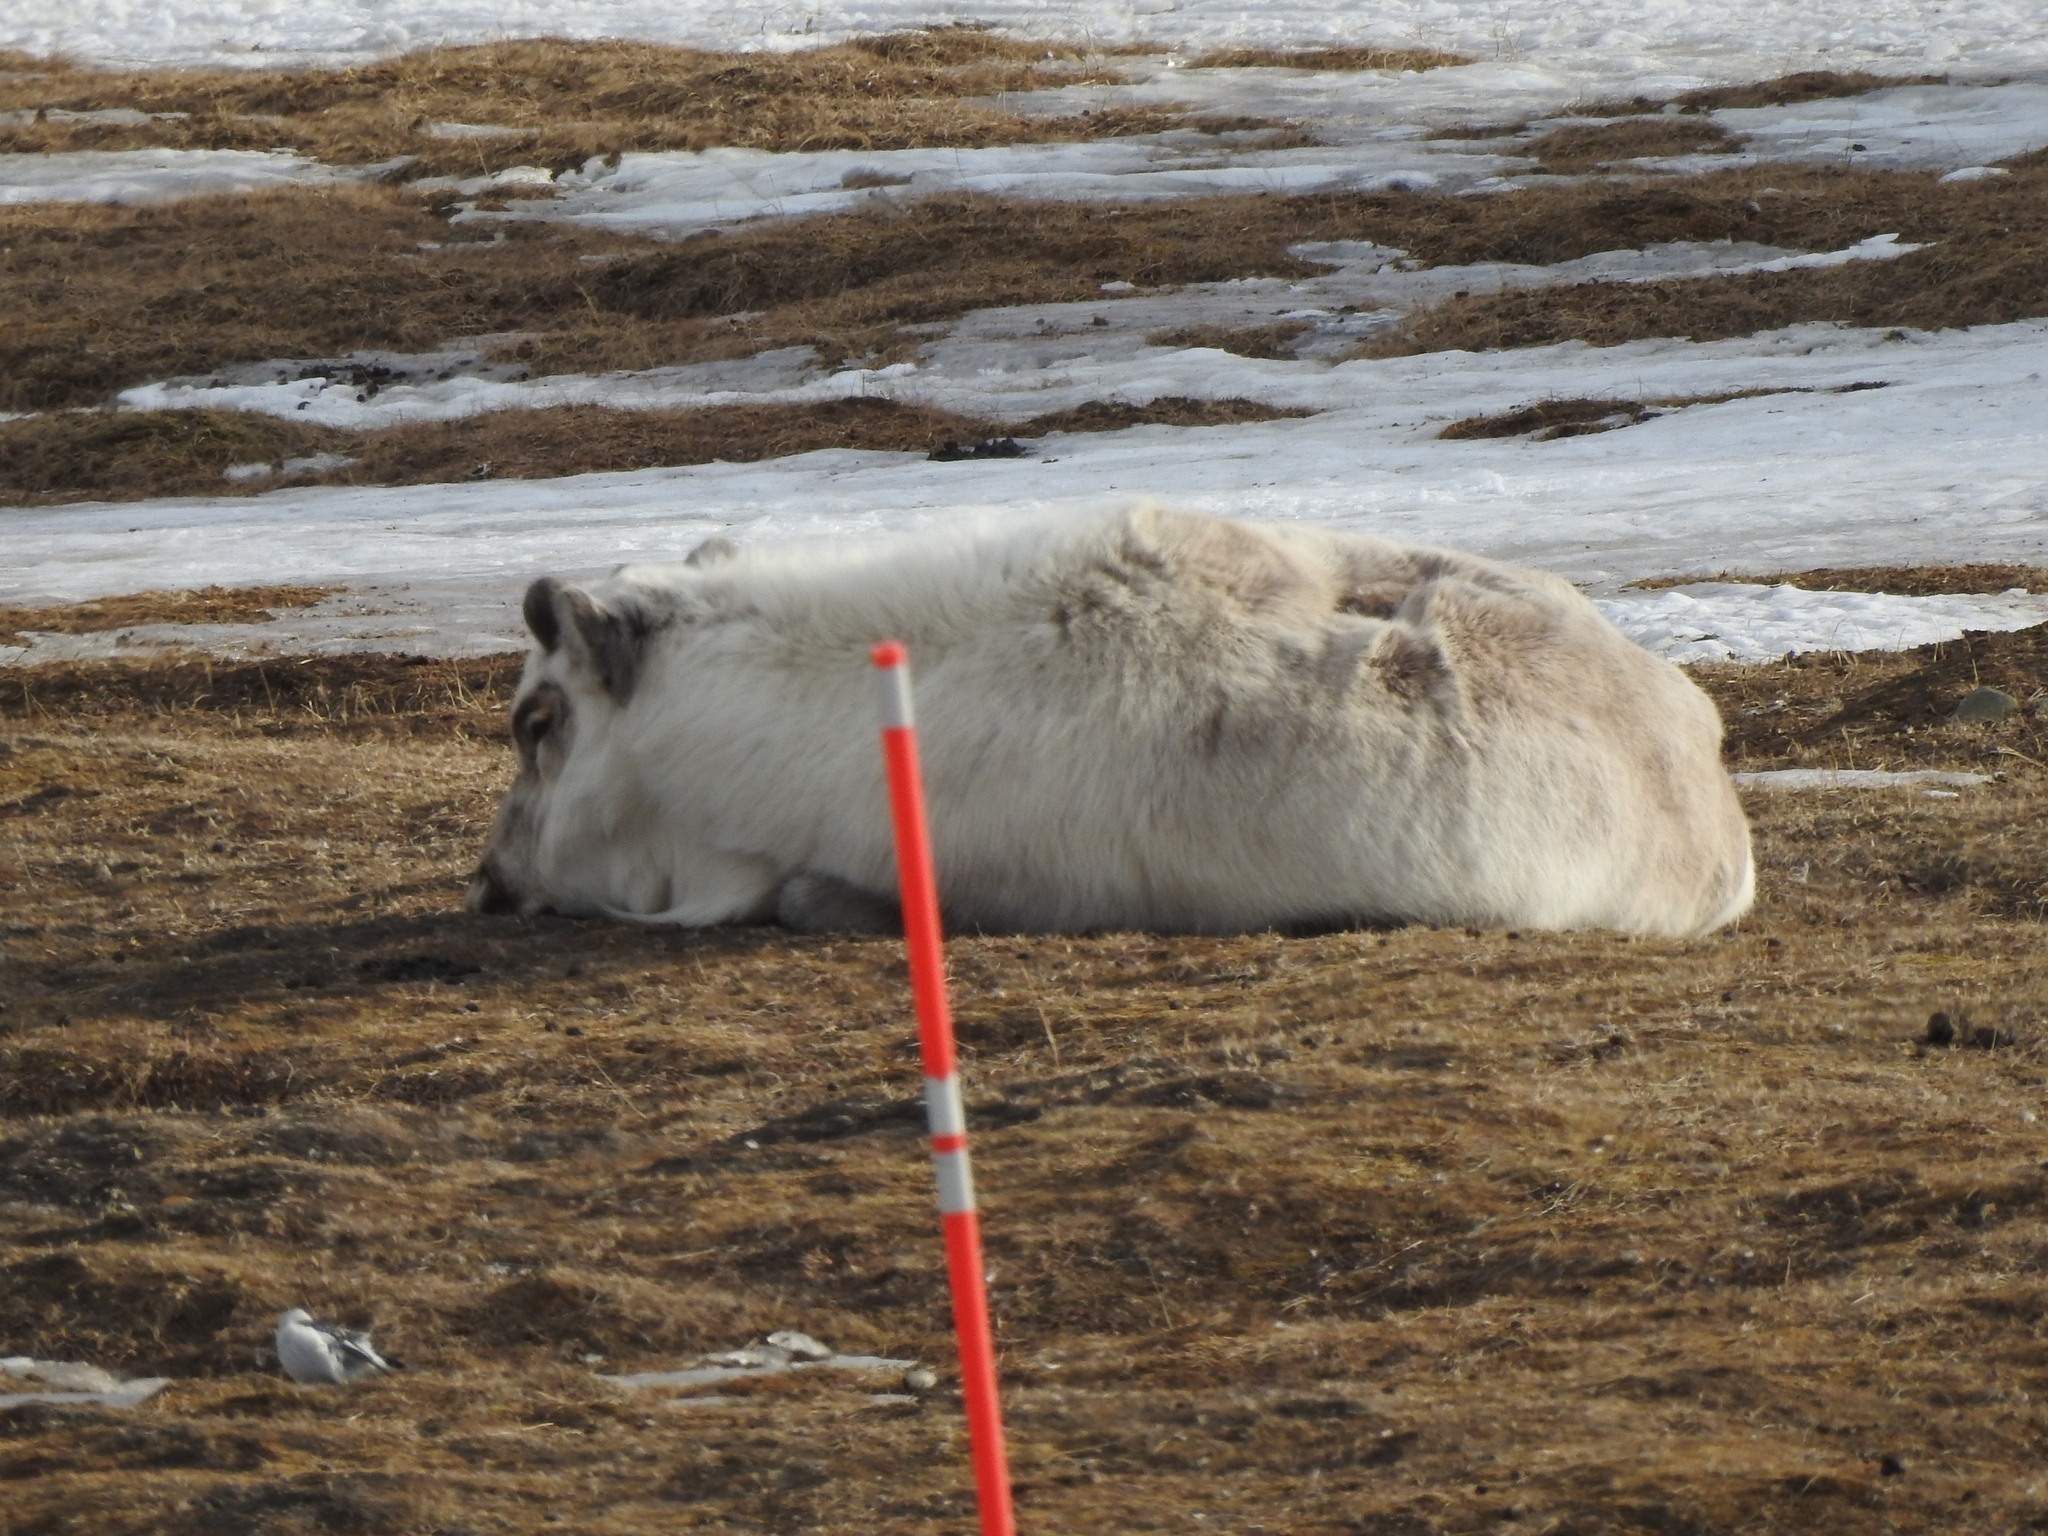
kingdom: Animalia
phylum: Chordata
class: Mammalia
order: Artiodactyla
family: Cervidae
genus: Rangifer
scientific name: Rangifer tarandus
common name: Reindeer
